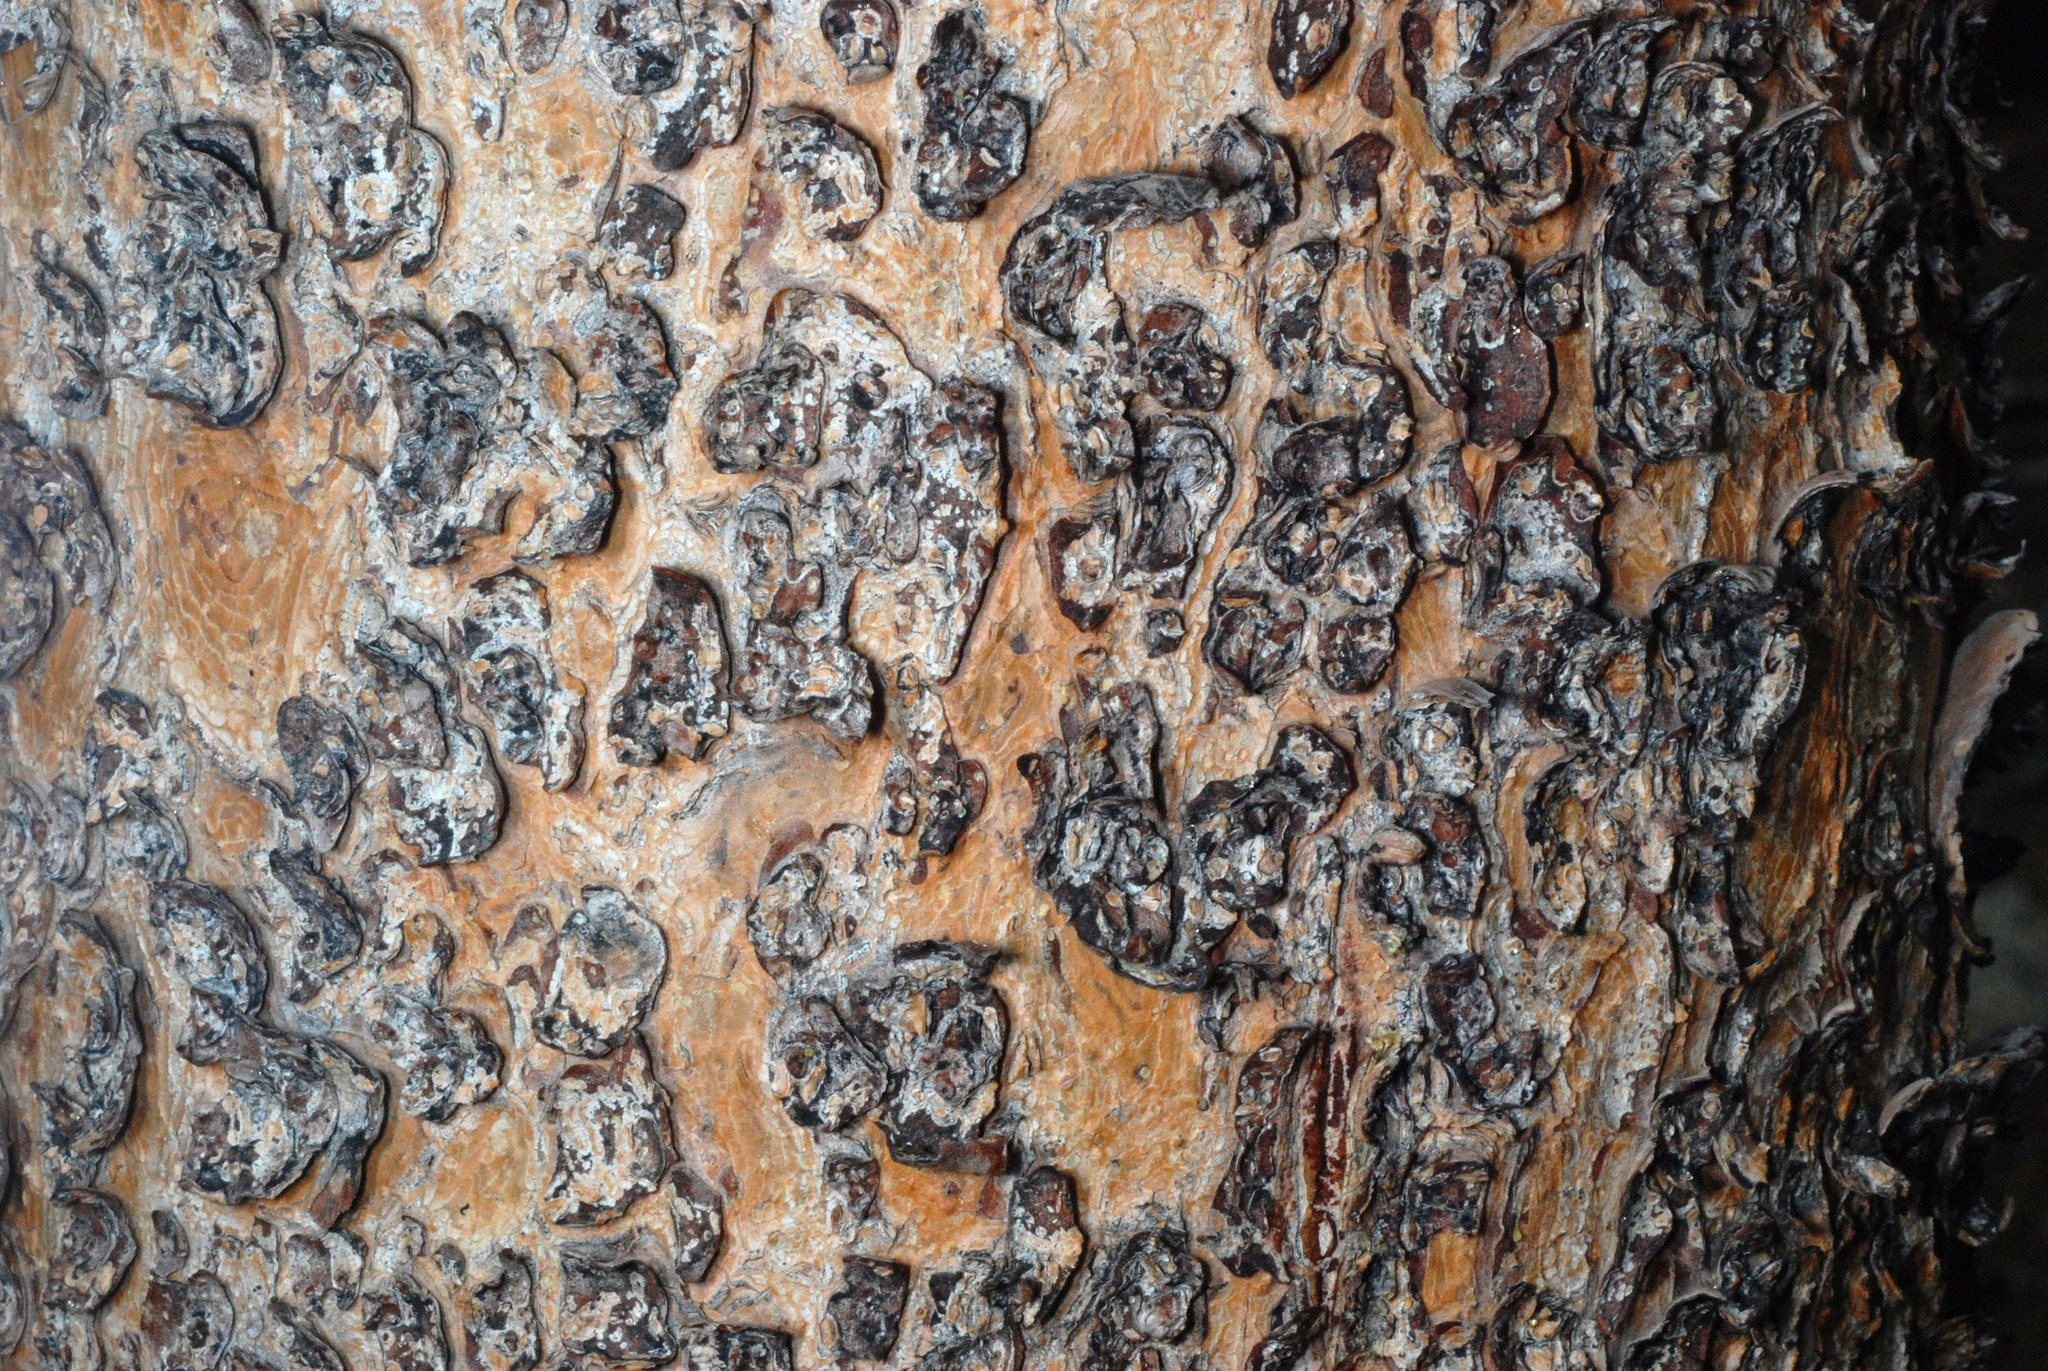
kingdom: Plantae
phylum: Tracheophyta
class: Pinopsida
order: Pinales
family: Pinaceae
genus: Pinus
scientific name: Pinus contorta
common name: Lodgepole pine
